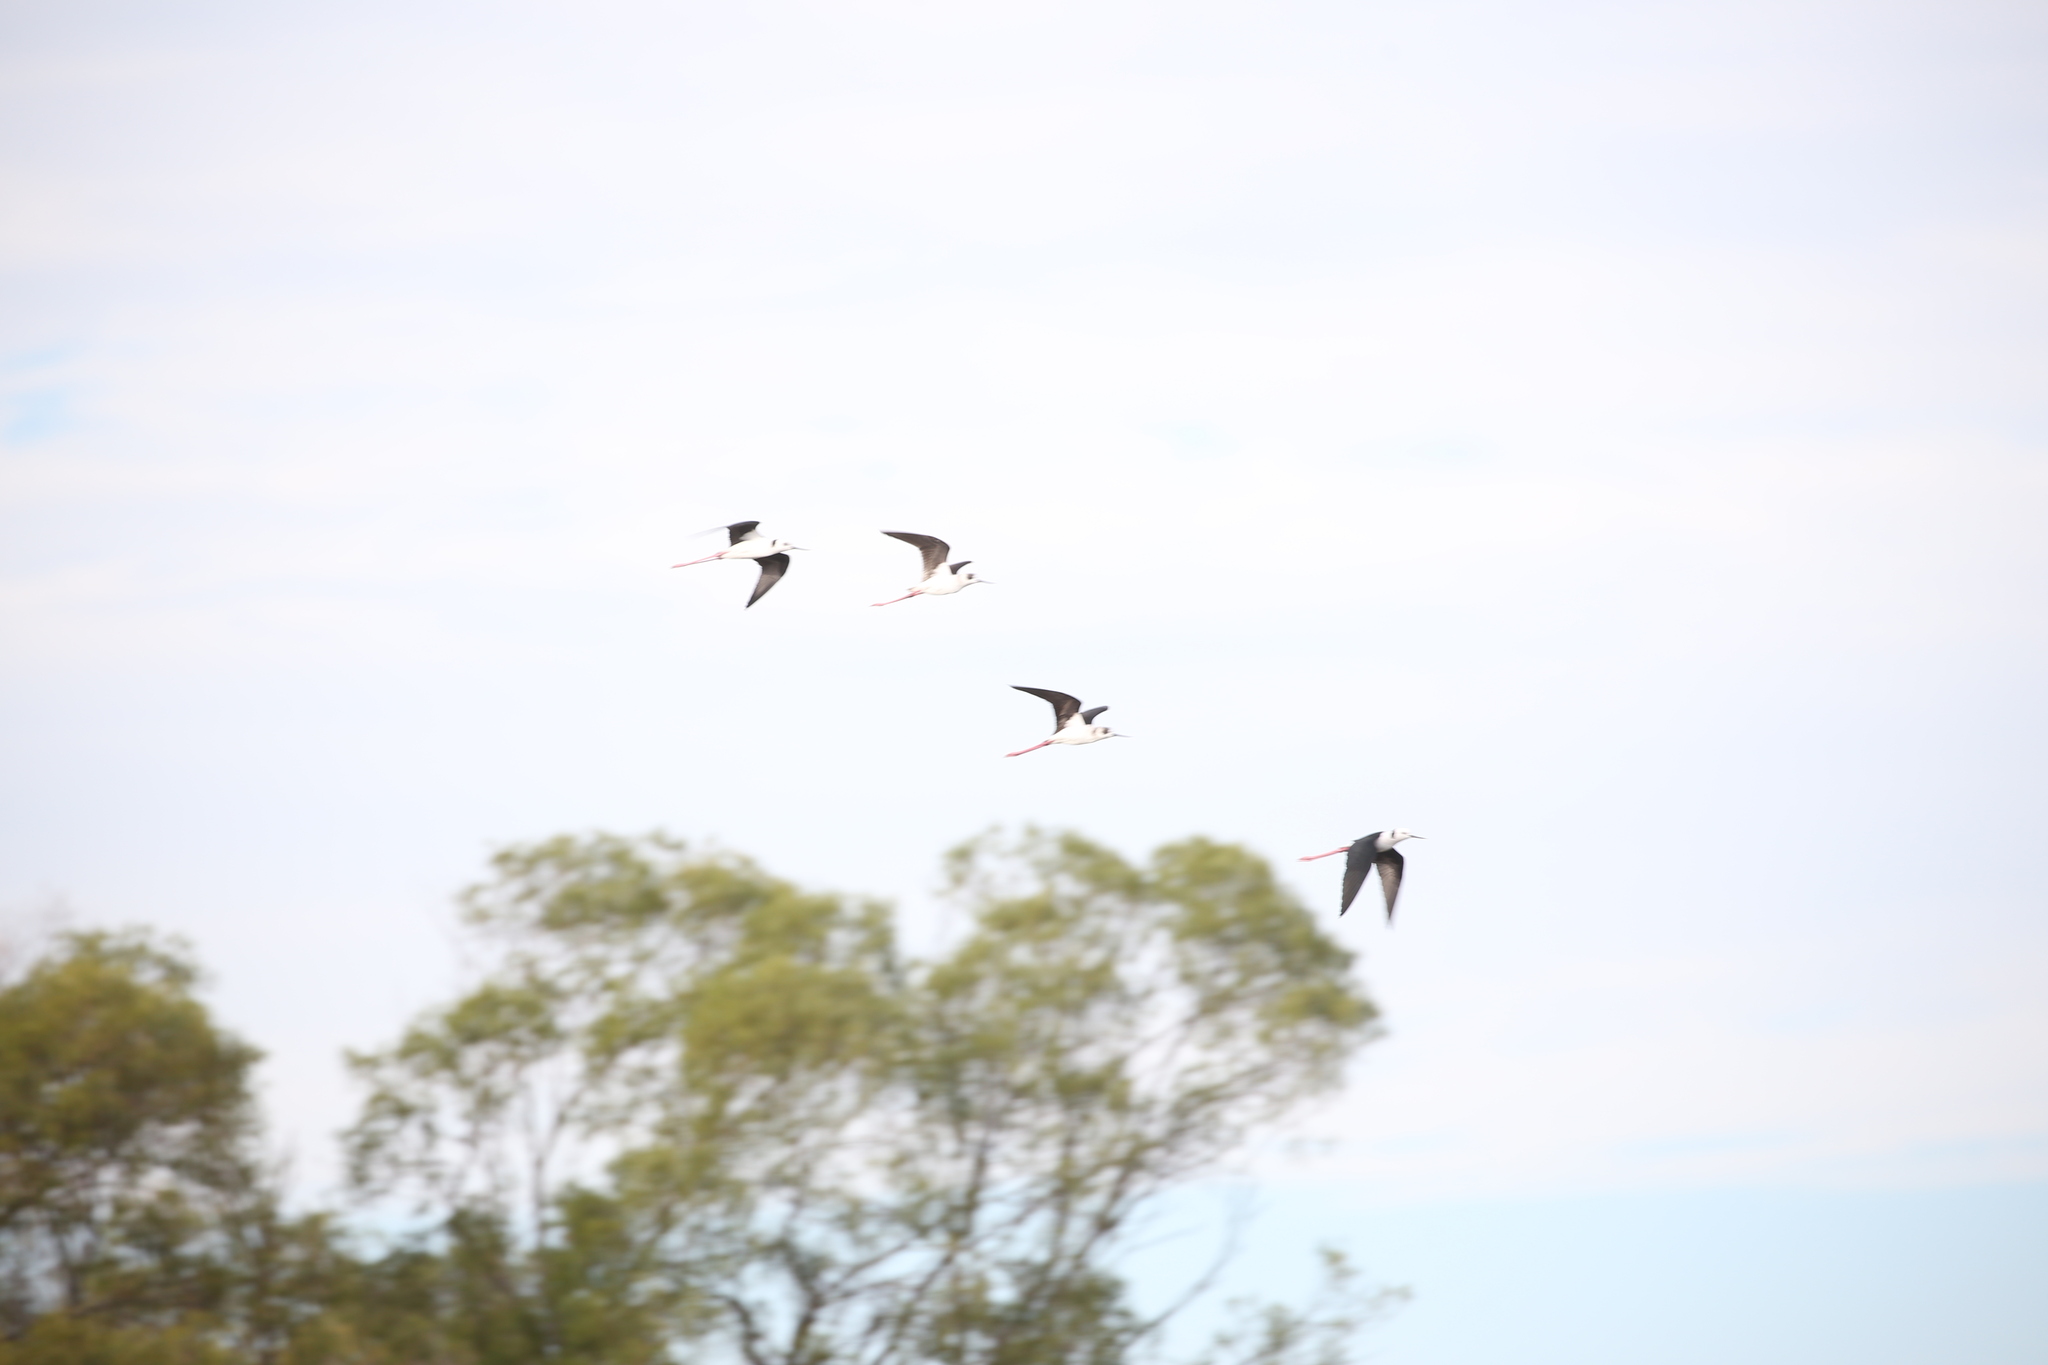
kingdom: Animalia
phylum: Chordata
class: Aves
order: Charadriiformes
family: Recurvirostridae
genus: Himantopus
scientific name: Himantopus leucocephalus
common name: White-headed stilt
